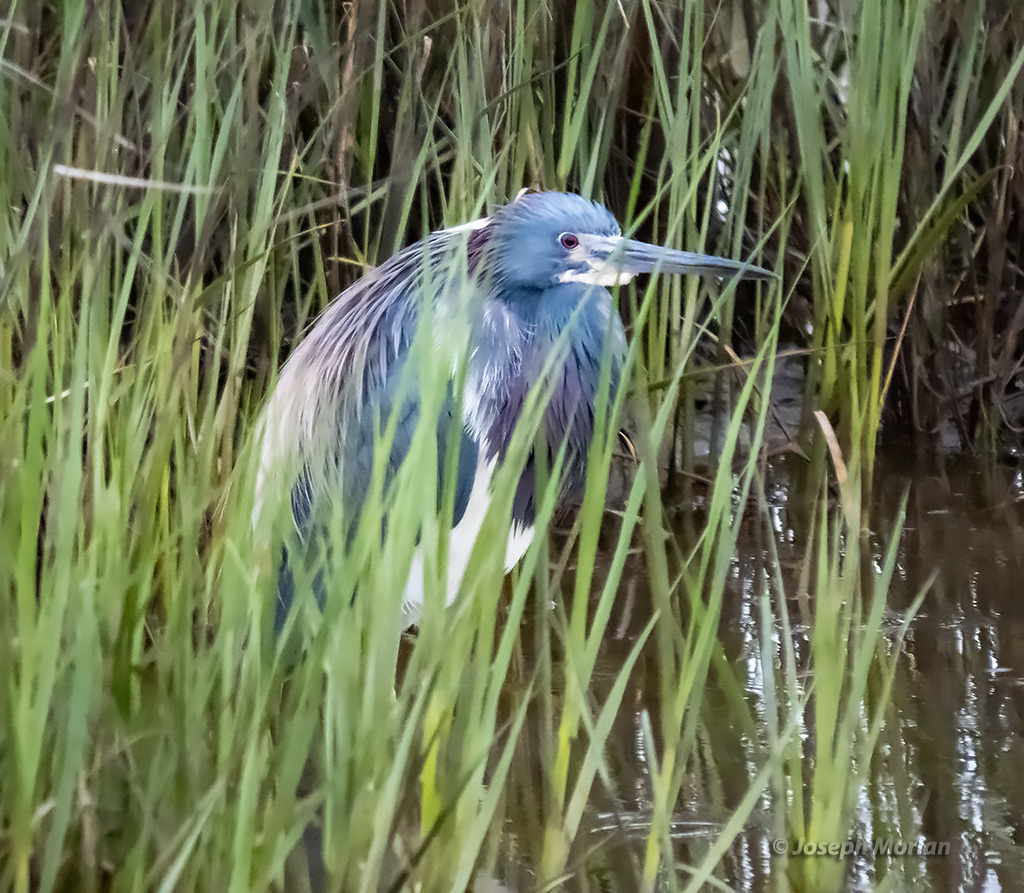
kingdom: Animalia
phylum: Chordata
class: Aves
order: Pelecaniformes
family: Ardeidae
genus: Egretta
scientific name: Egretta tricolor
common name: Tricolored heron
